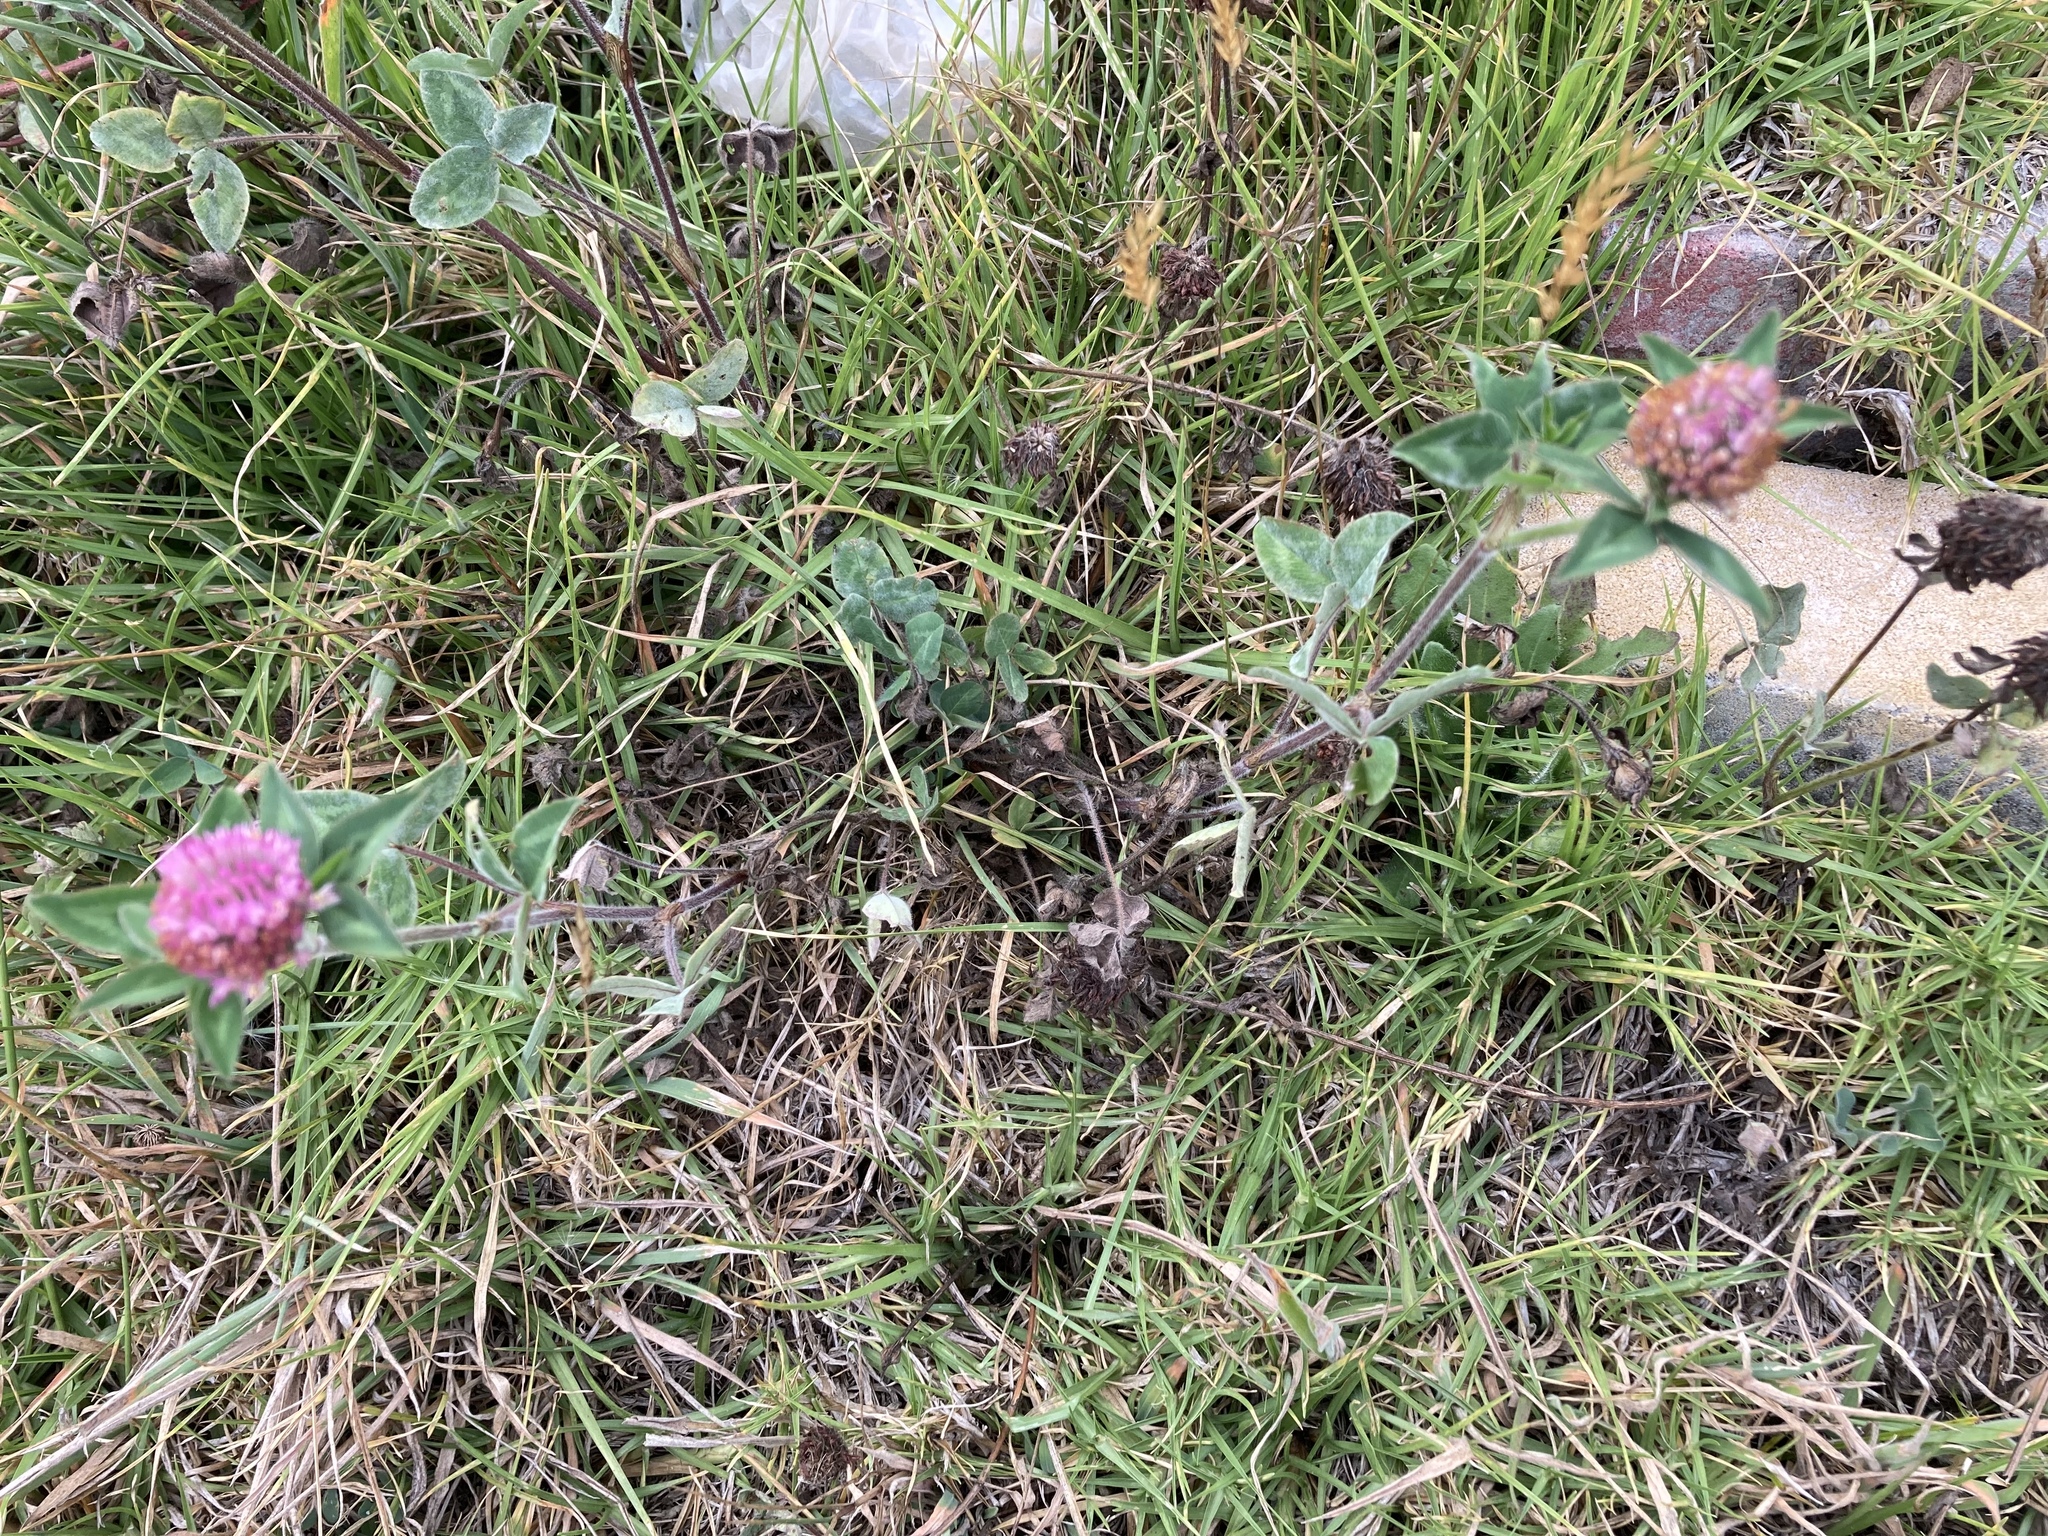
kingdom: Plantae
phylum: Tracheophyta
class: Magnoliopsida
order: Fabales
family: Fabaceae
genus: Trifolium
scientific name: Trifolium pratense
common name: Red clover
